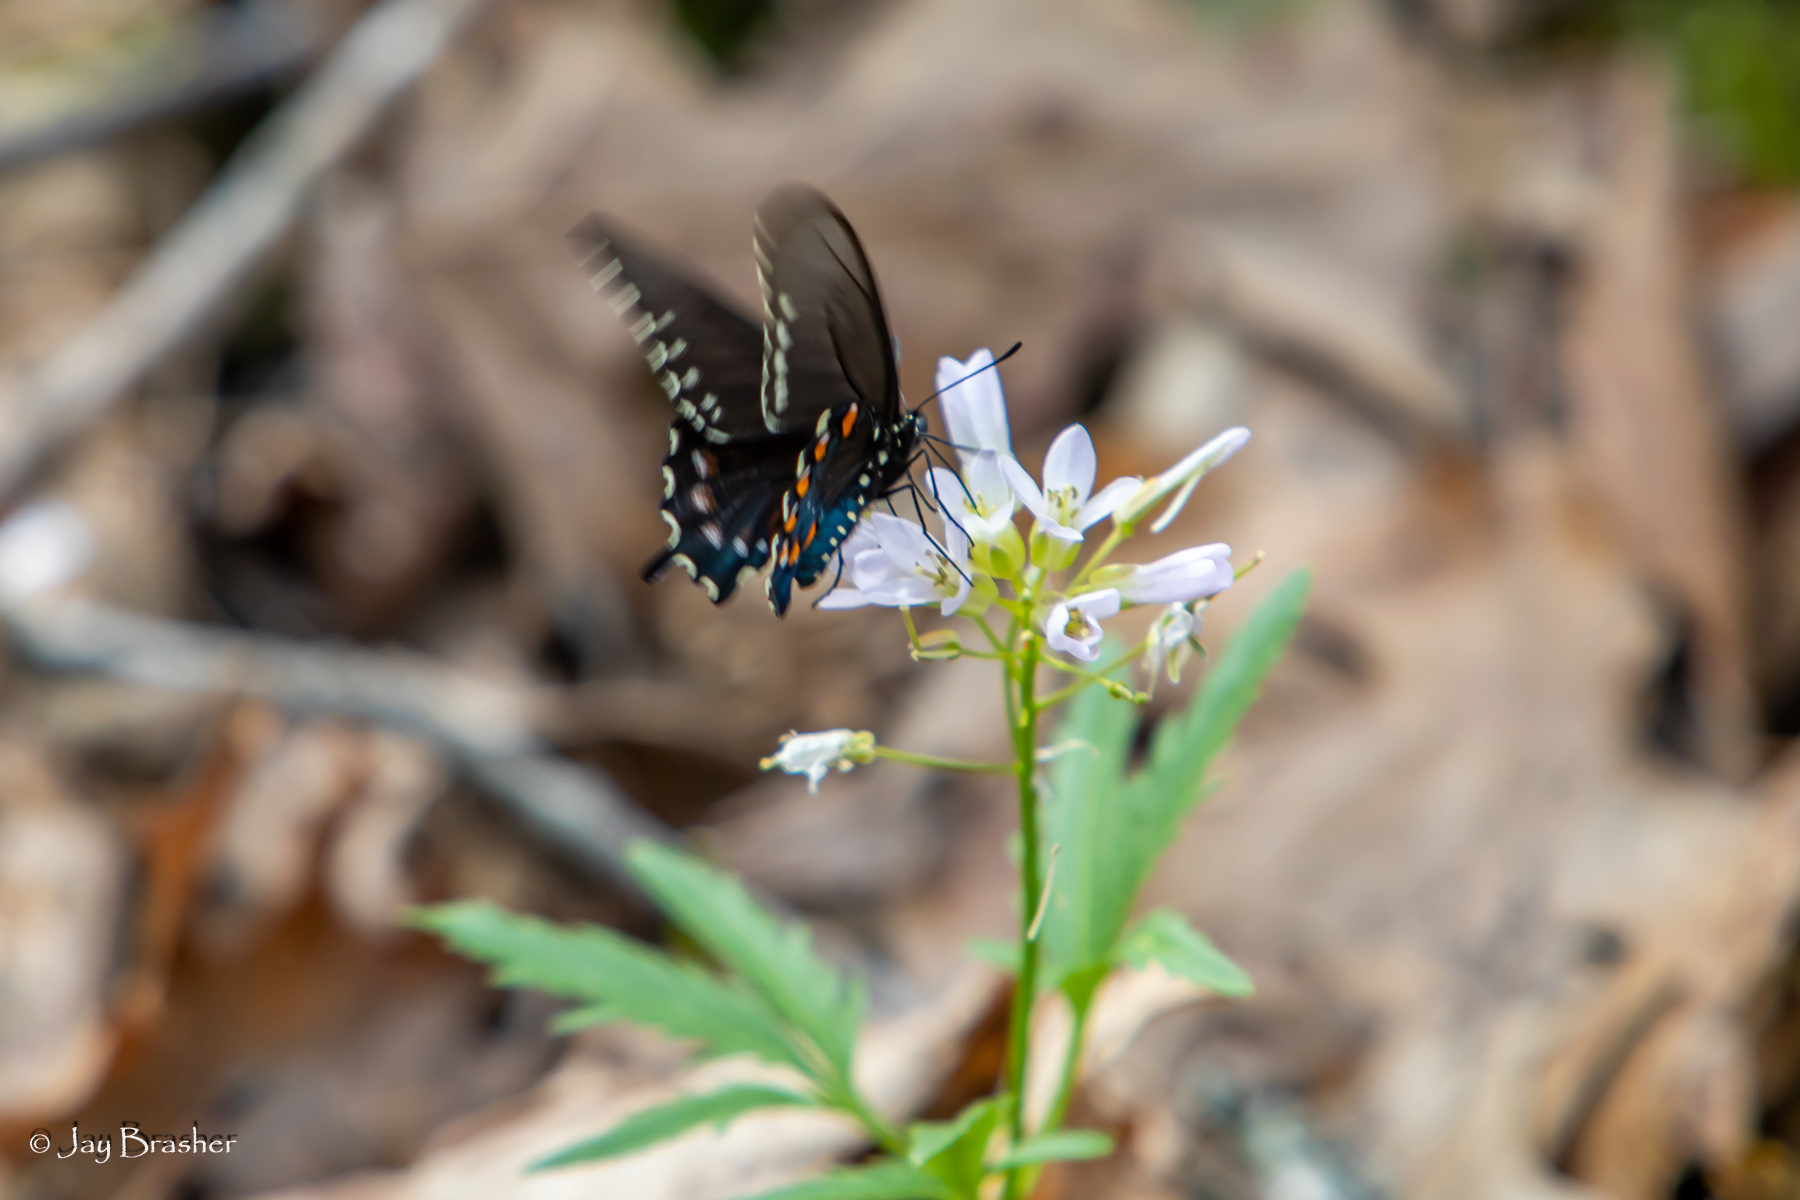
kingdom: Animalia
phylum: Arthropoda
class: Insecta
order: Lepidoptera
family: Papilionidae
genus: Battus
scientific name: Battus philenor
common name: Pipevine swallowtail
